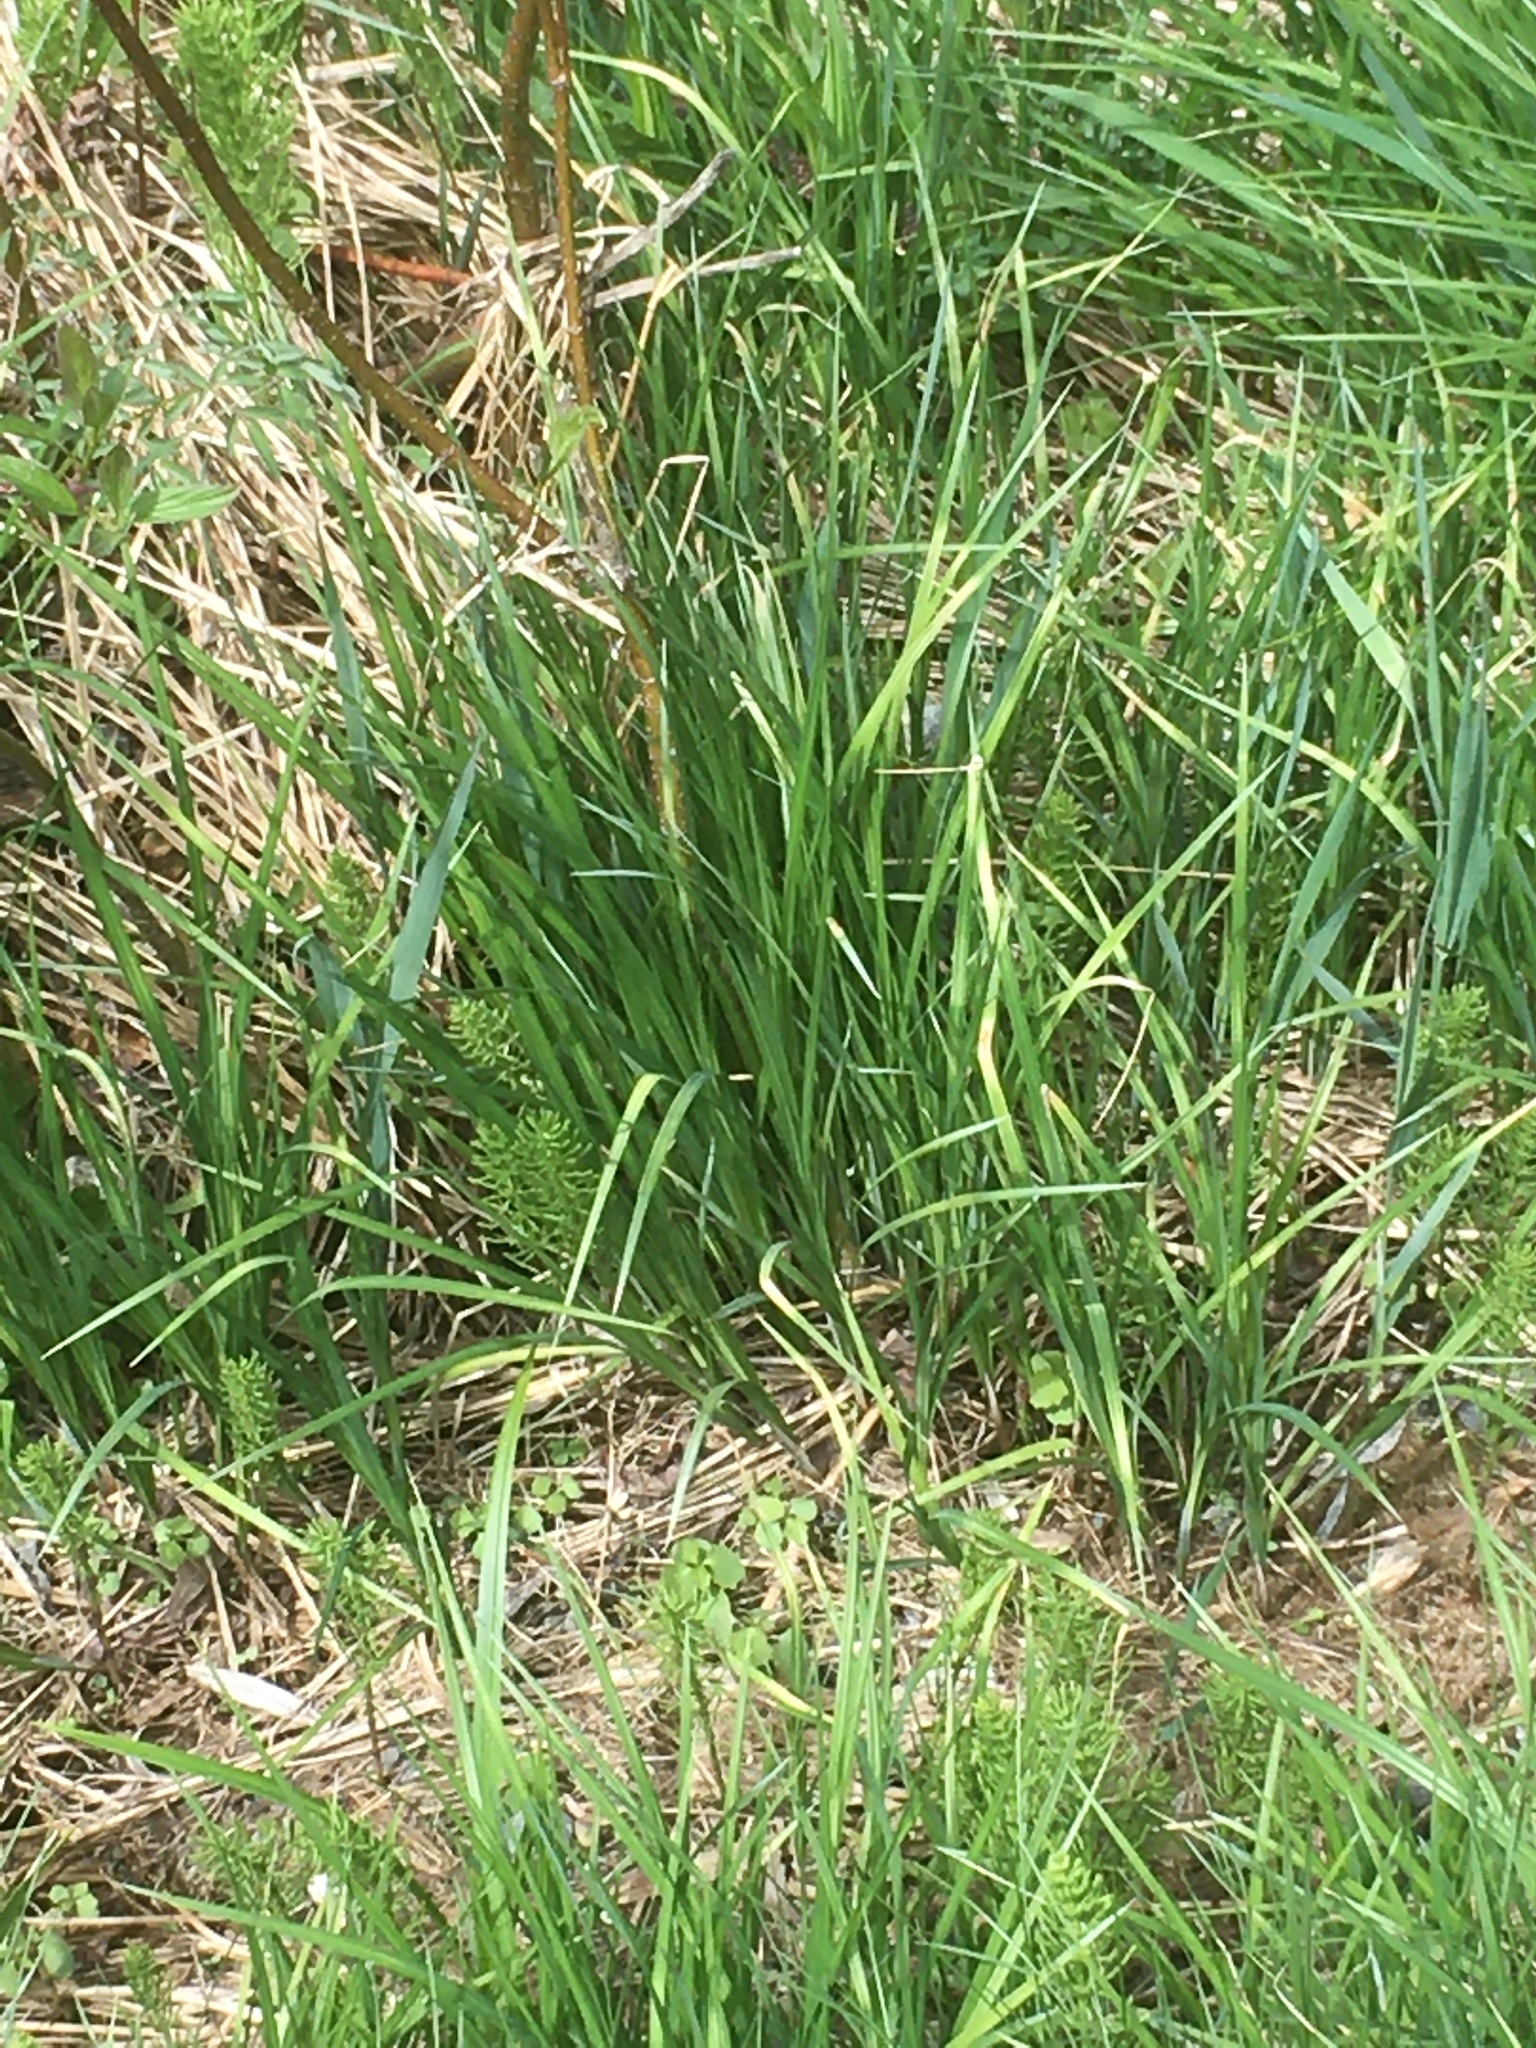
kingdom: Plantae
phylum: Tracheophyta
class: Polypodiopsida
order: Equisetales
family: Equisetaceae
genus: Equisetum
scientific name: Equisetum arvense
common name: Field horsetail
